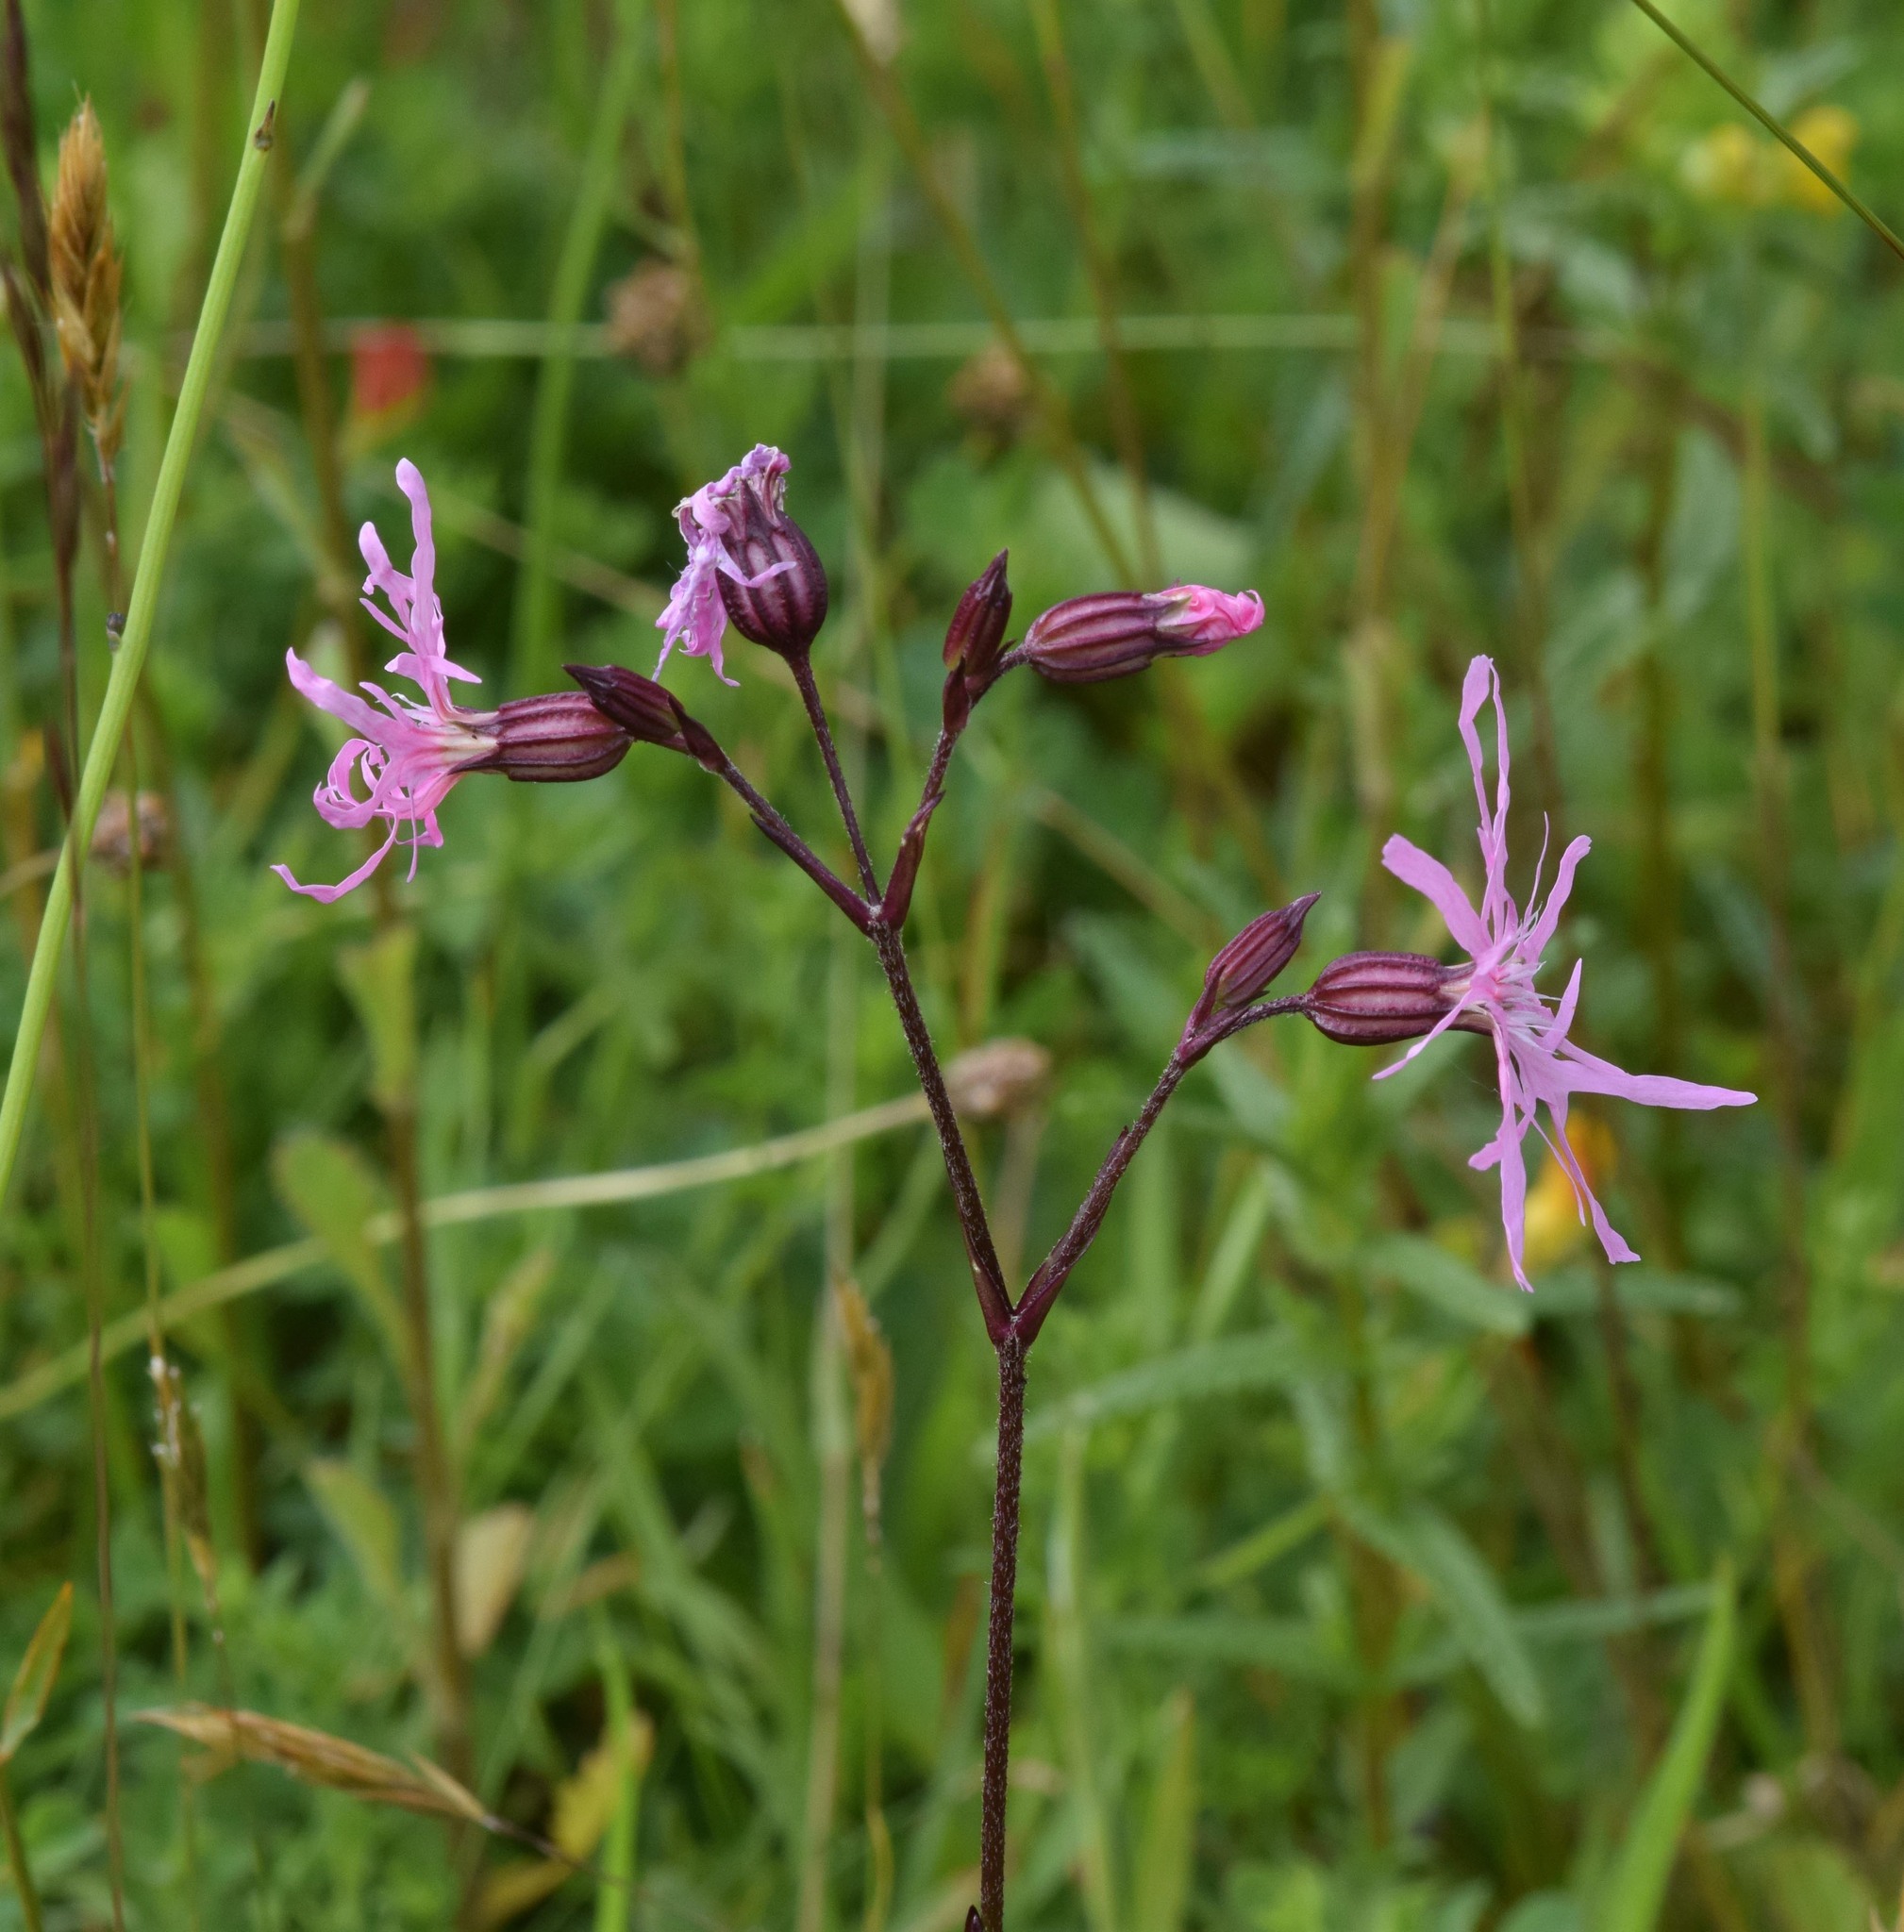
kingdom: Plantae
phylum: Tracheophyta
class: Magnoliopsida
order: Caryophyllales
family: Caryophyllaceae
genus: Silene
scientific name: Silene flos-cuculi
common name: Ragged-robin
